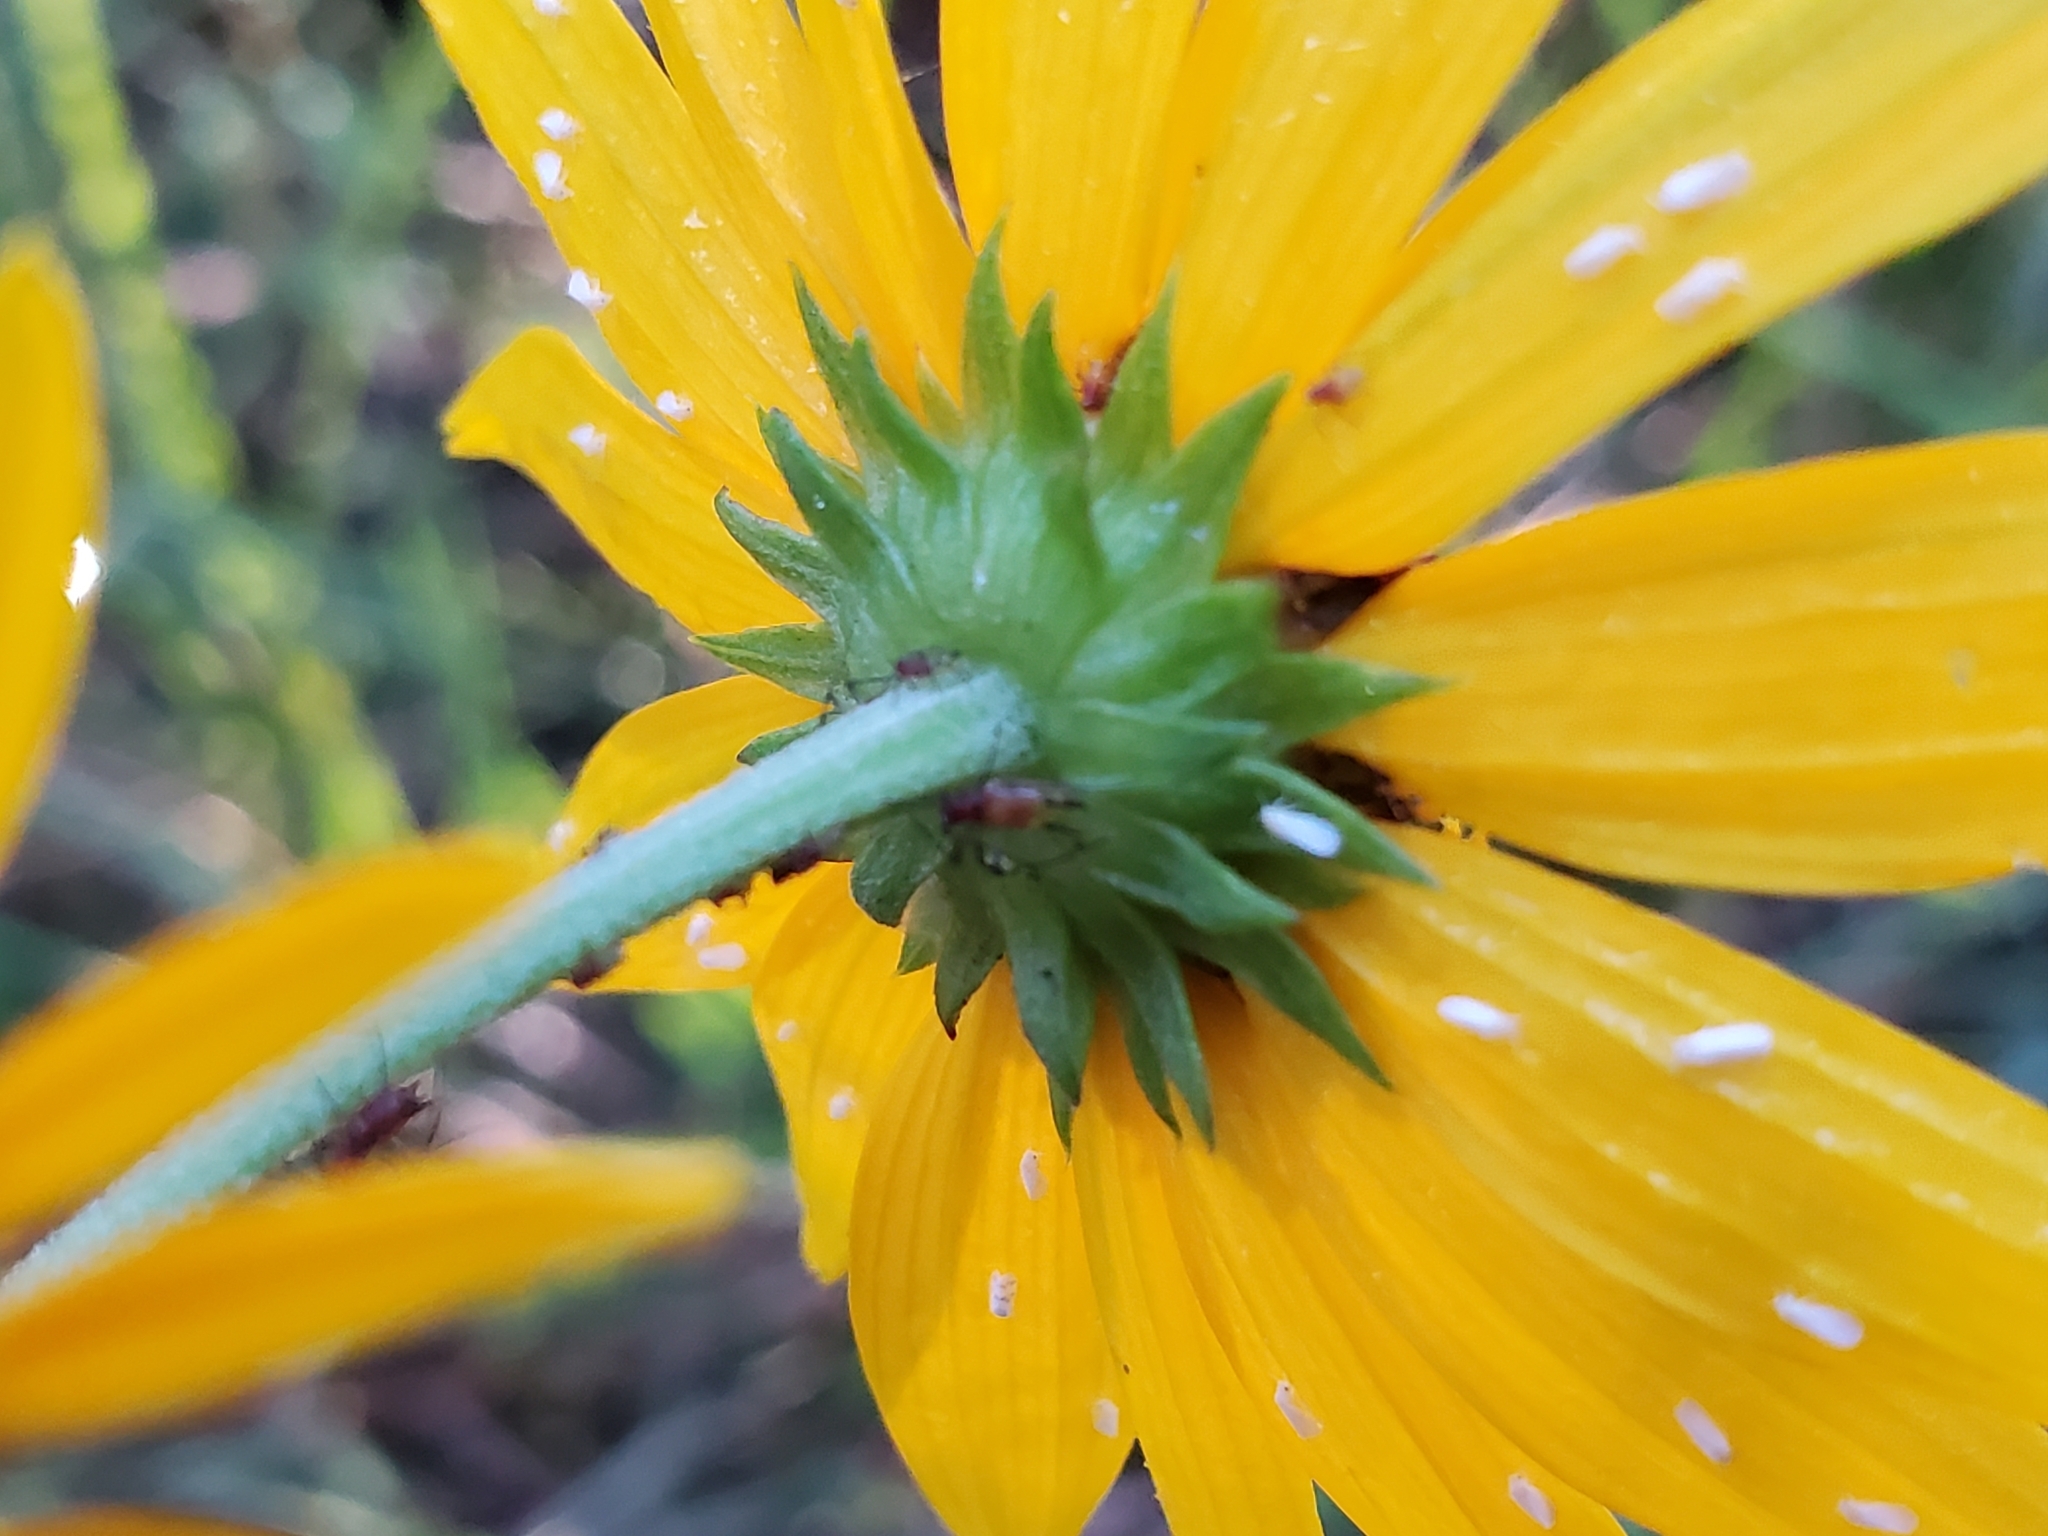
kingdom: Plantae
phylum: Tracheophyta
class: Magnoliopsida
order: Asterales
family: Asteraceae
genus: Helianthus
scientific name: Helianthus angustifolius
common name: Swamp sunflower
